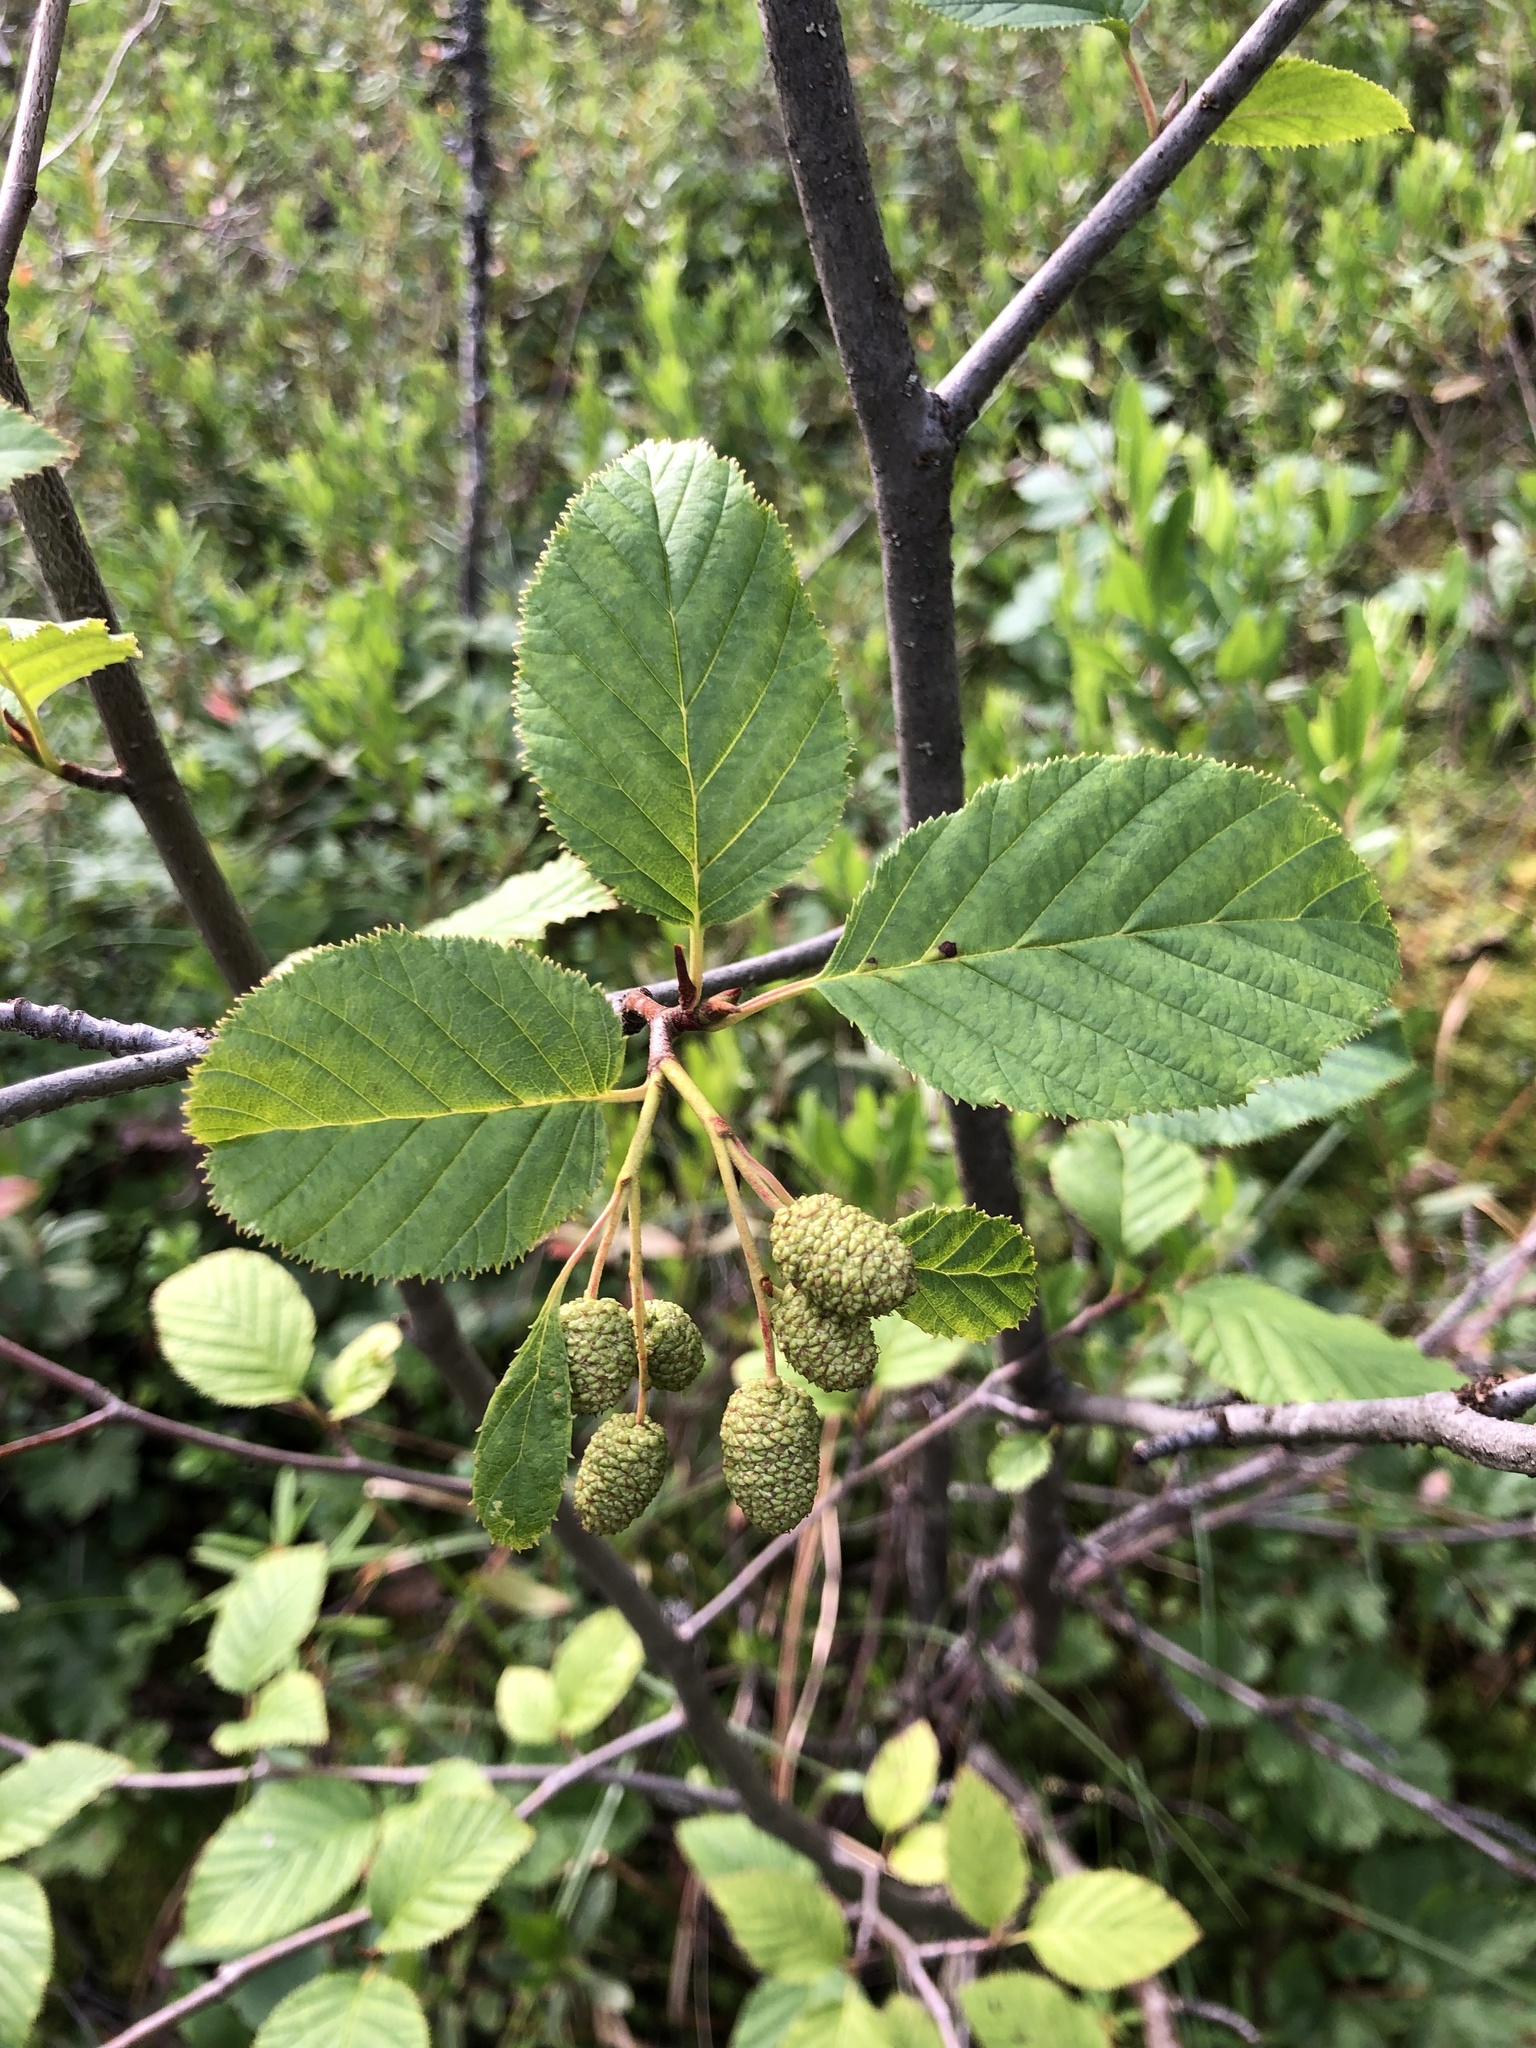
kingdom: Plantae
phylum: Tracheophyta
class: Magnoliopsida
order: Fagales
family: Betulaceae
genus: Alnus
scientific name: Alnus alnobetula
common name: Green alder
